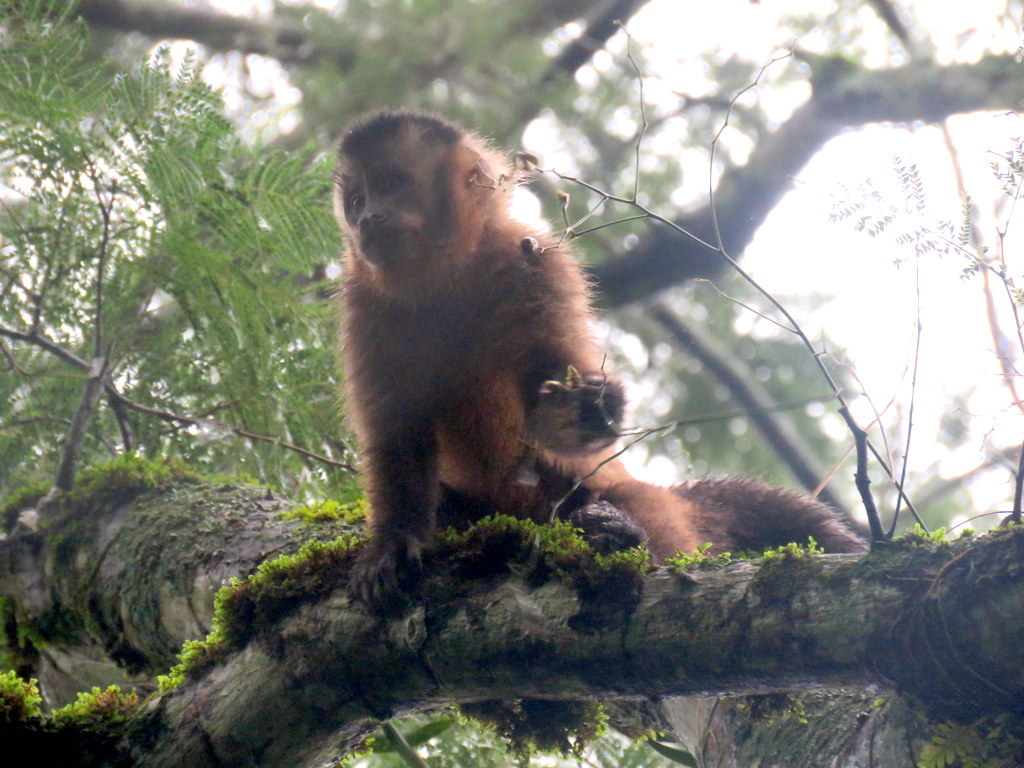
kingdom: Animalia
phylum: Chordata
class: Mammalia
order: Primates
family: Cebidae
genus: Sapajus
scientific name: Sapajus cay
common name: Hooded capuchin
